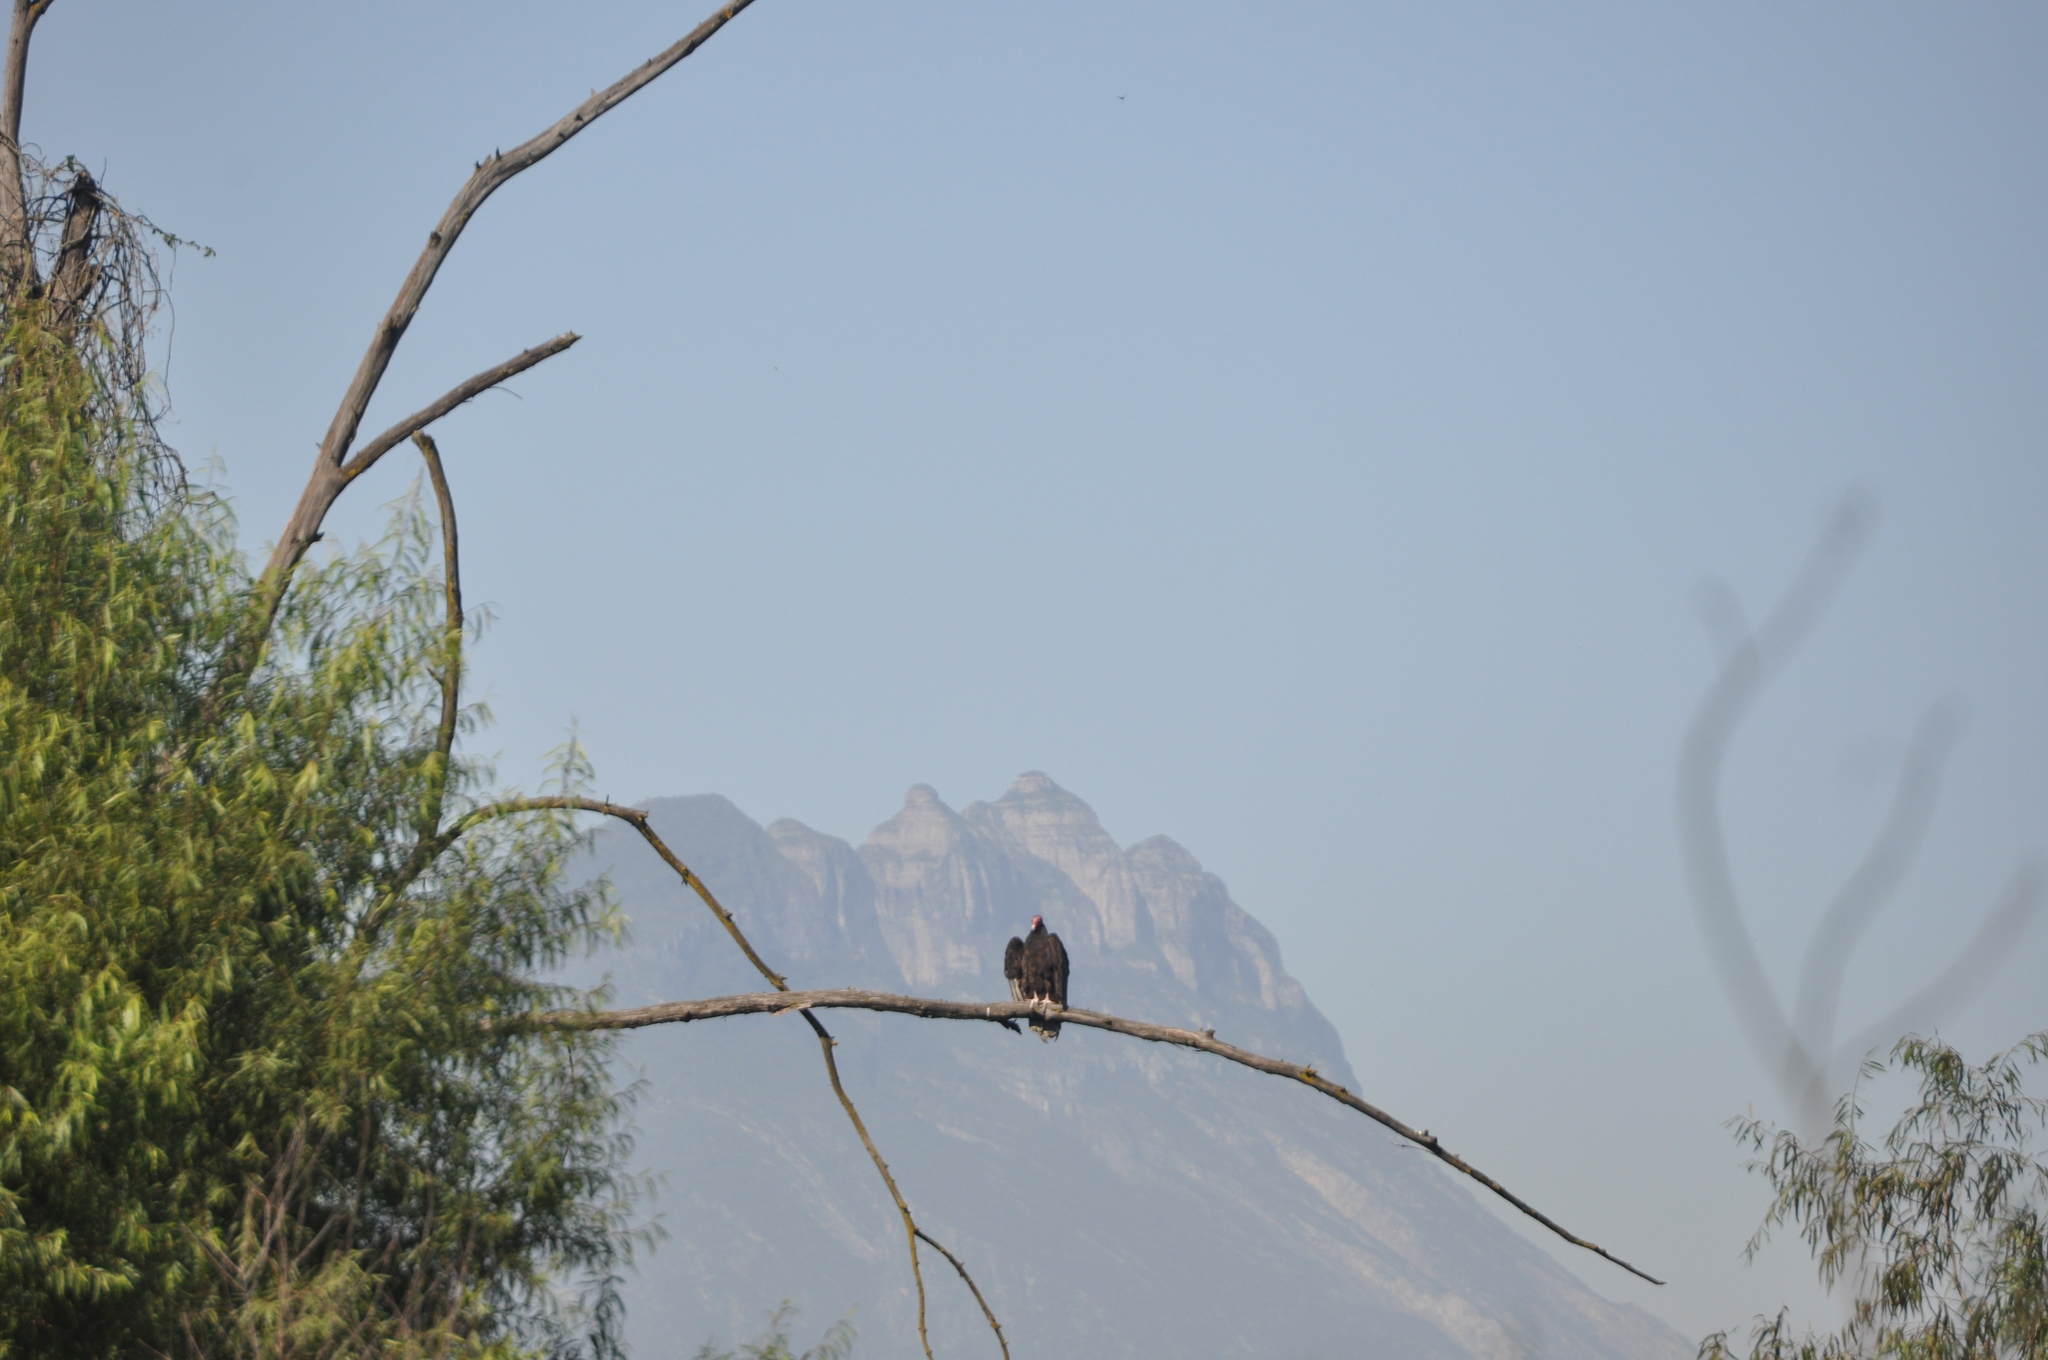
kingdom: Animalia
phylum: Chordata
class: Aves
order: Accipitriformes
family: Cathartidae
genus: Cathartes
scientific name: Cathartes aura
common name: Turkey vulture
